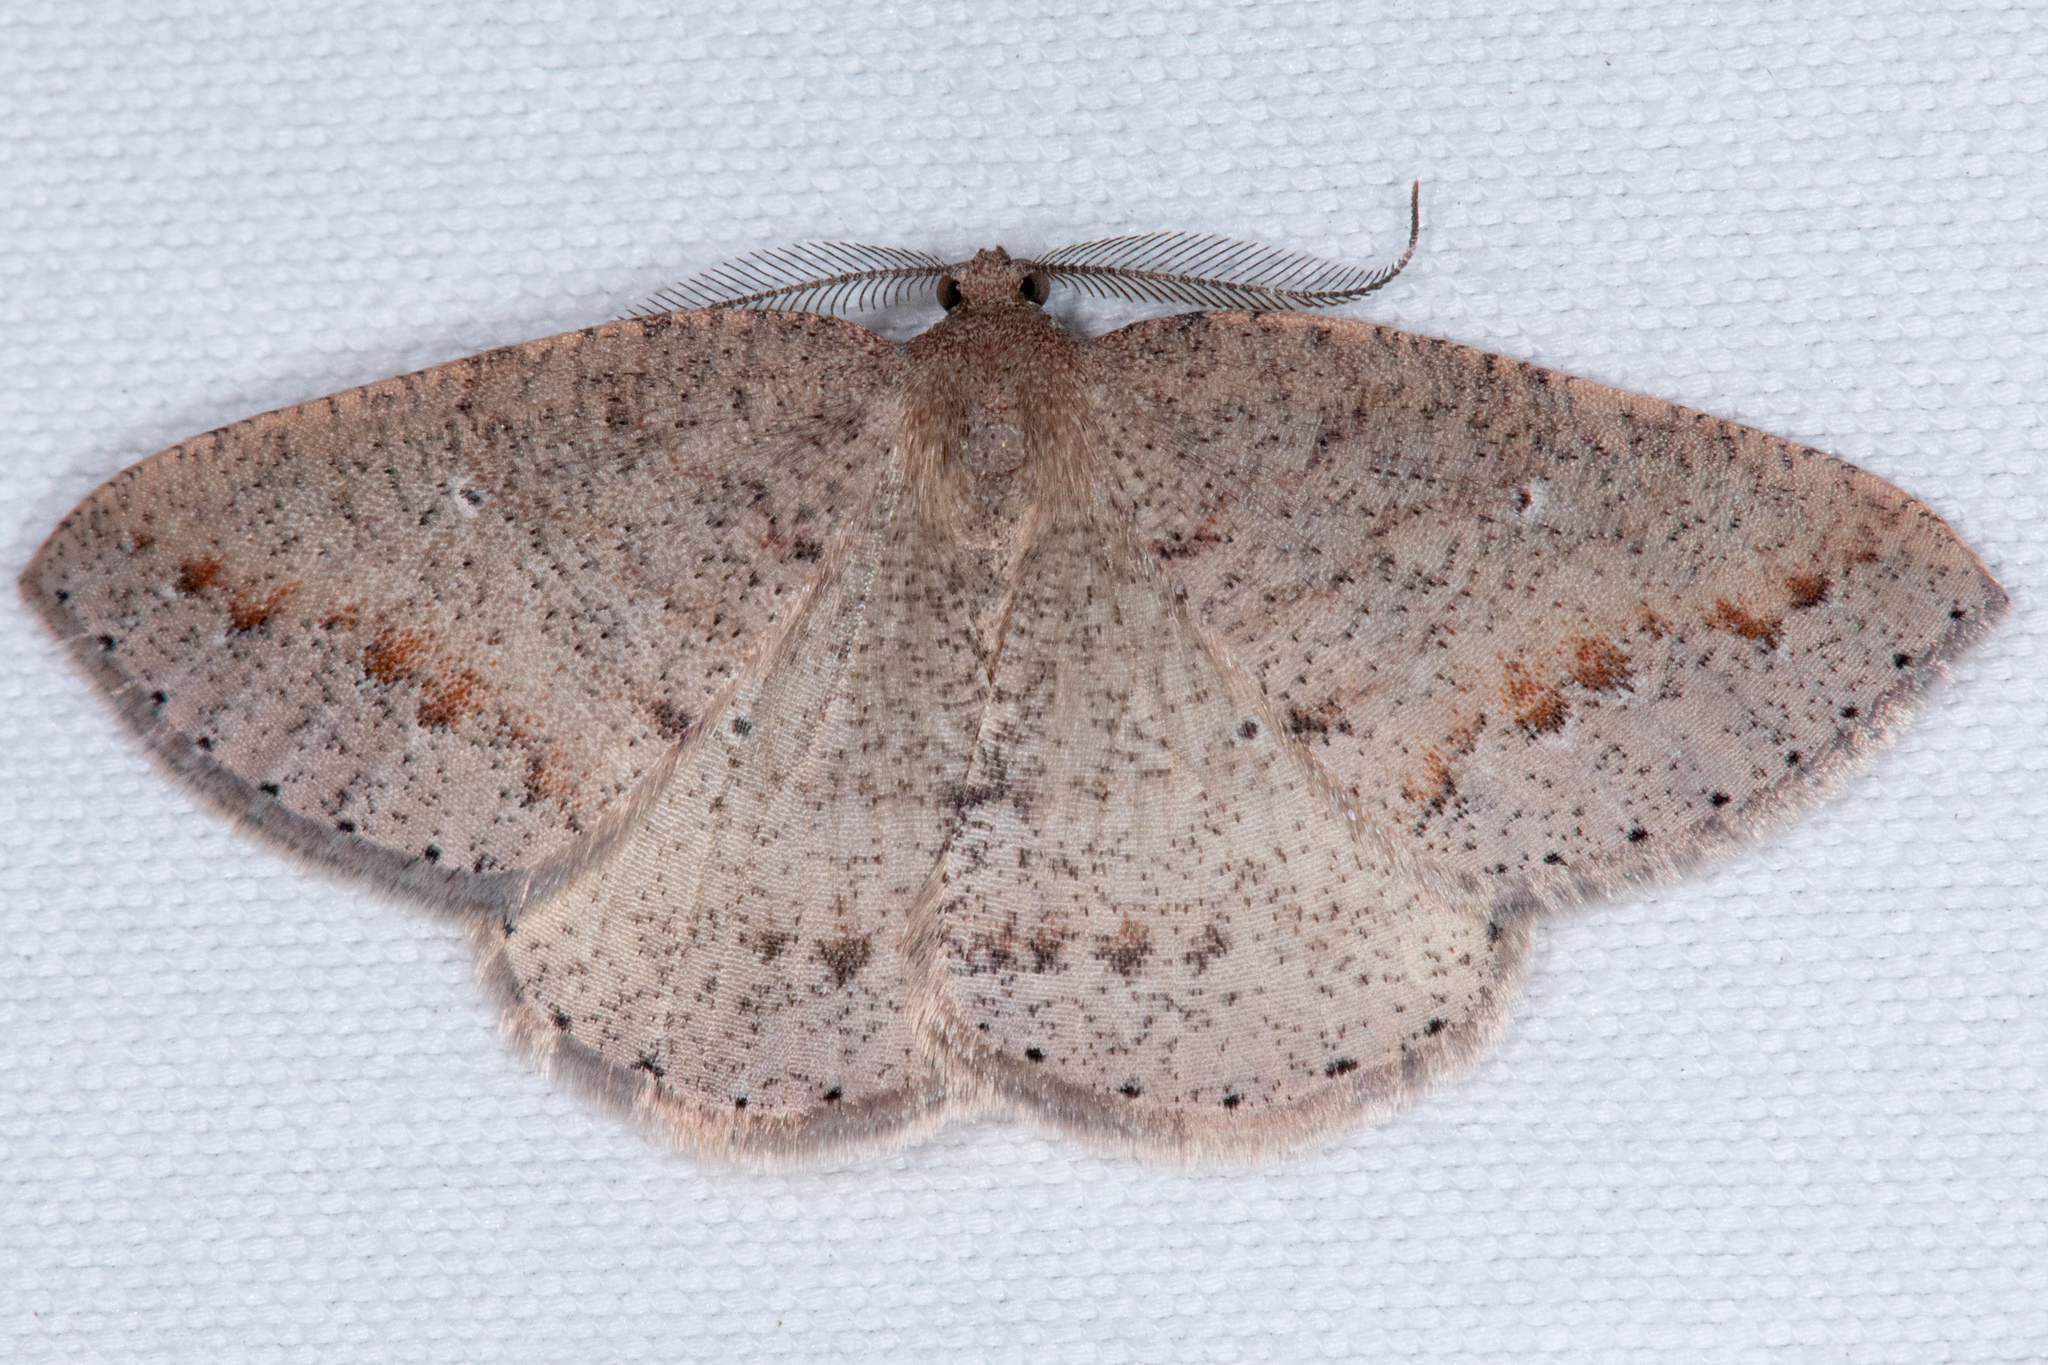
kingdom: Animalia
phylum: Arthropoda
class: Insecta
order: Lepidoptera
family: Geometridae
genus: Drepanulatrix
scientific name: Drepanulatrix secundaria
